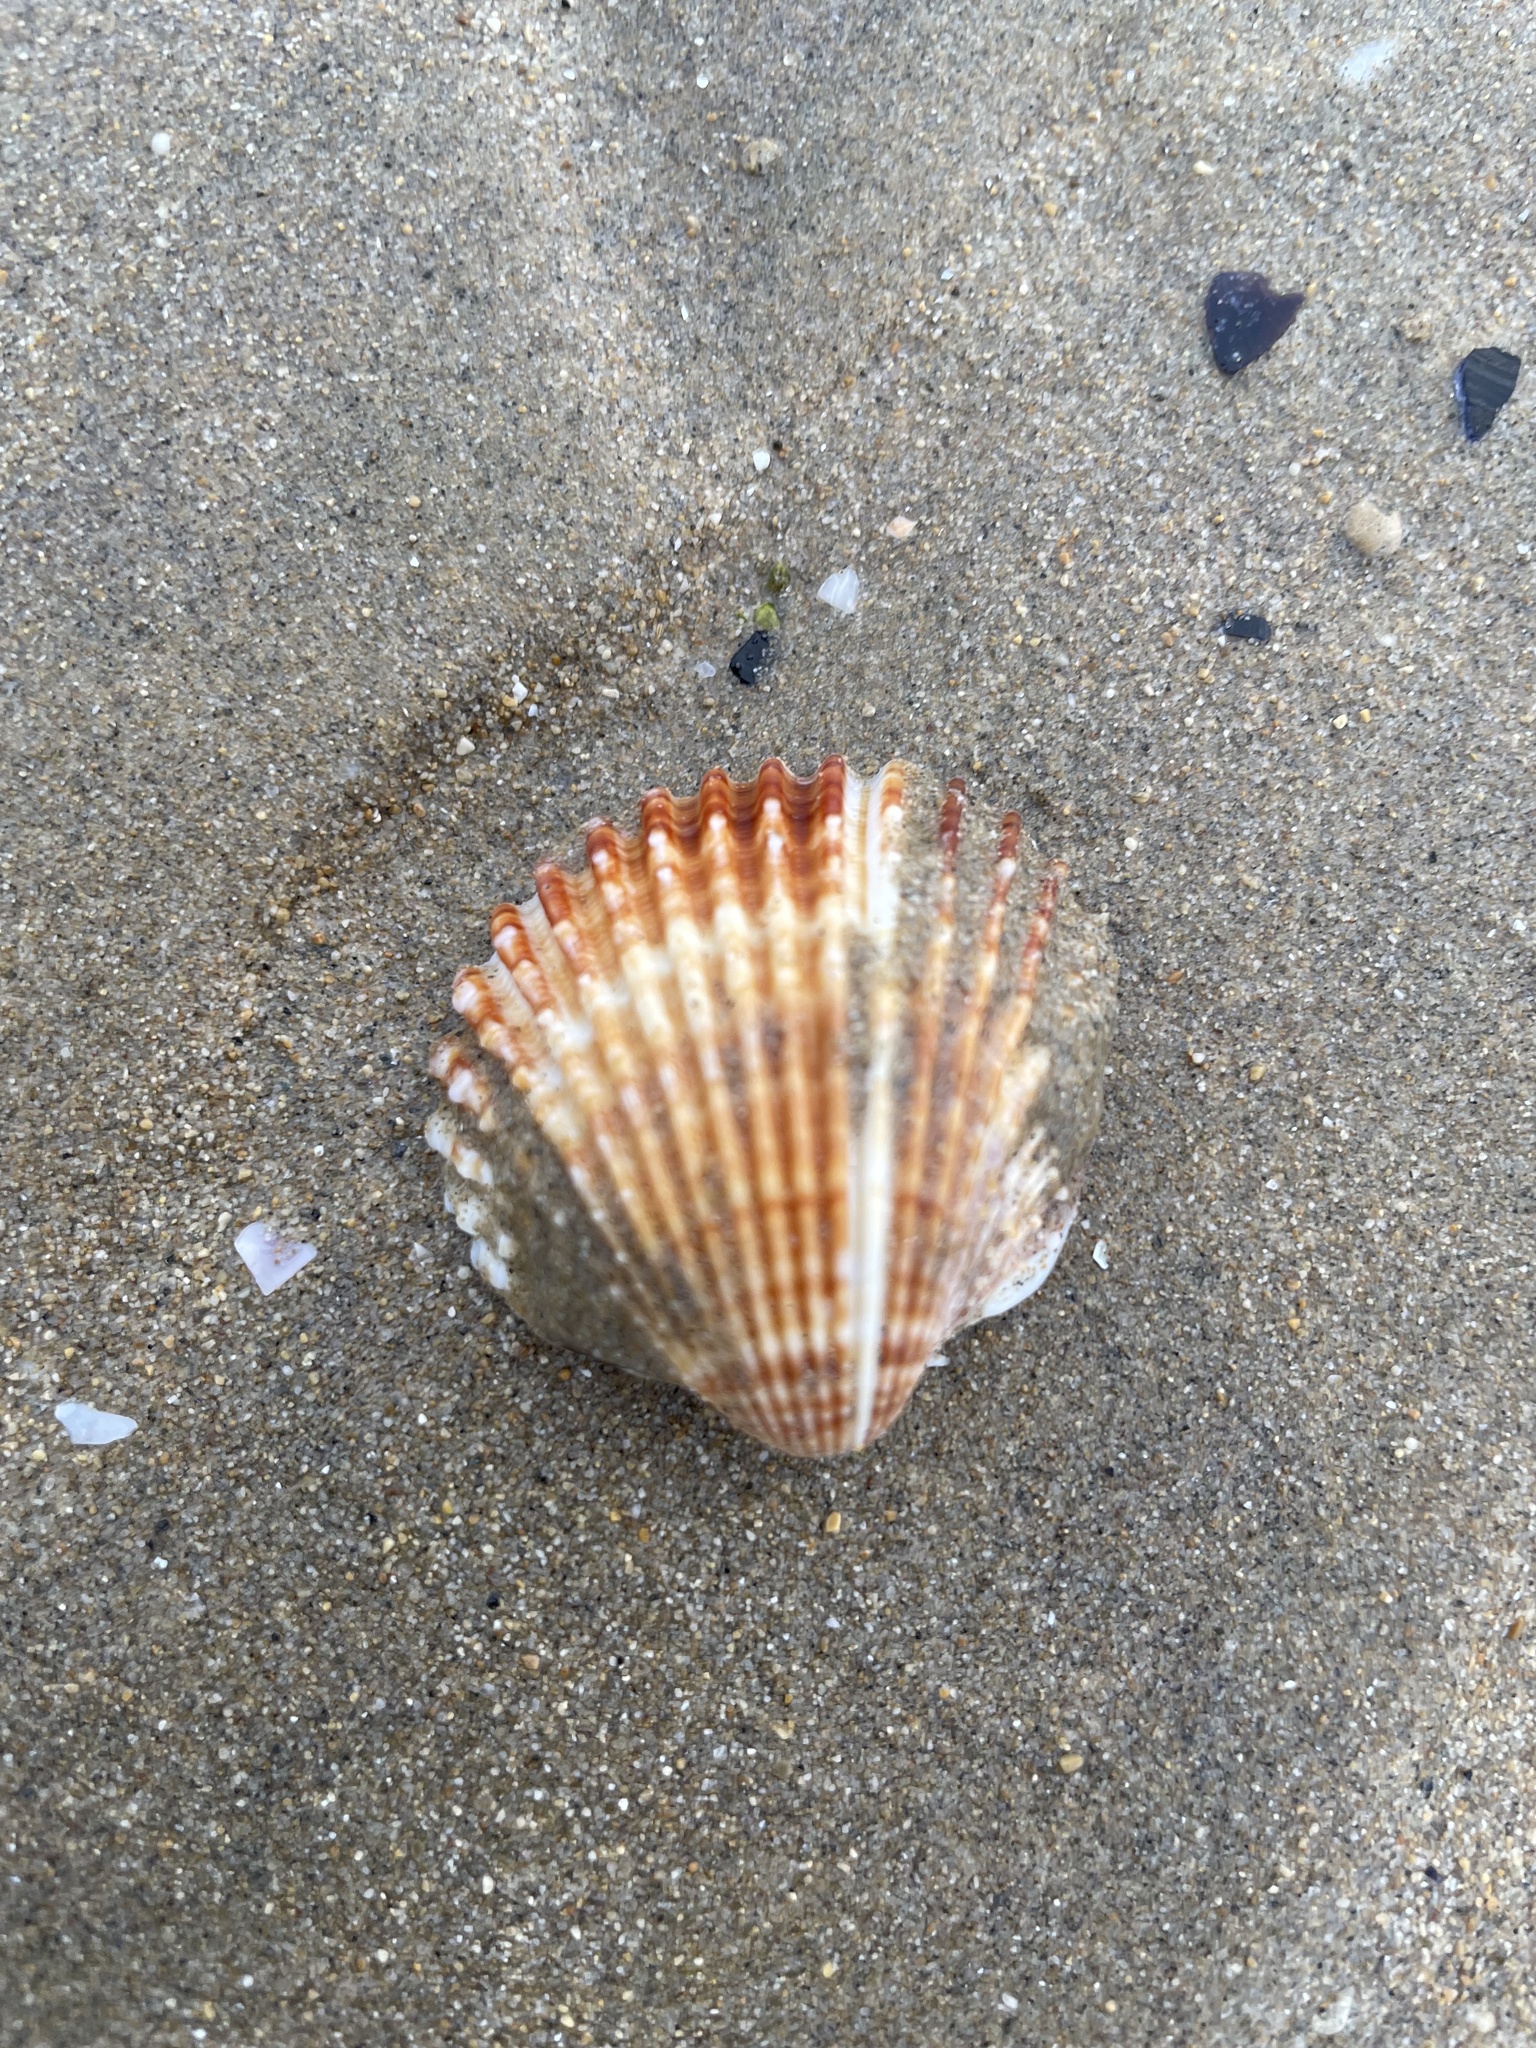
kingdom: Animalia
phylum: Mollusca
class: Bivalvia
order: Cardiida
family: Cardiidae
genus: Acanthocardia
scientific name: Acanthocardia echinata
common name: Prickly cockle
